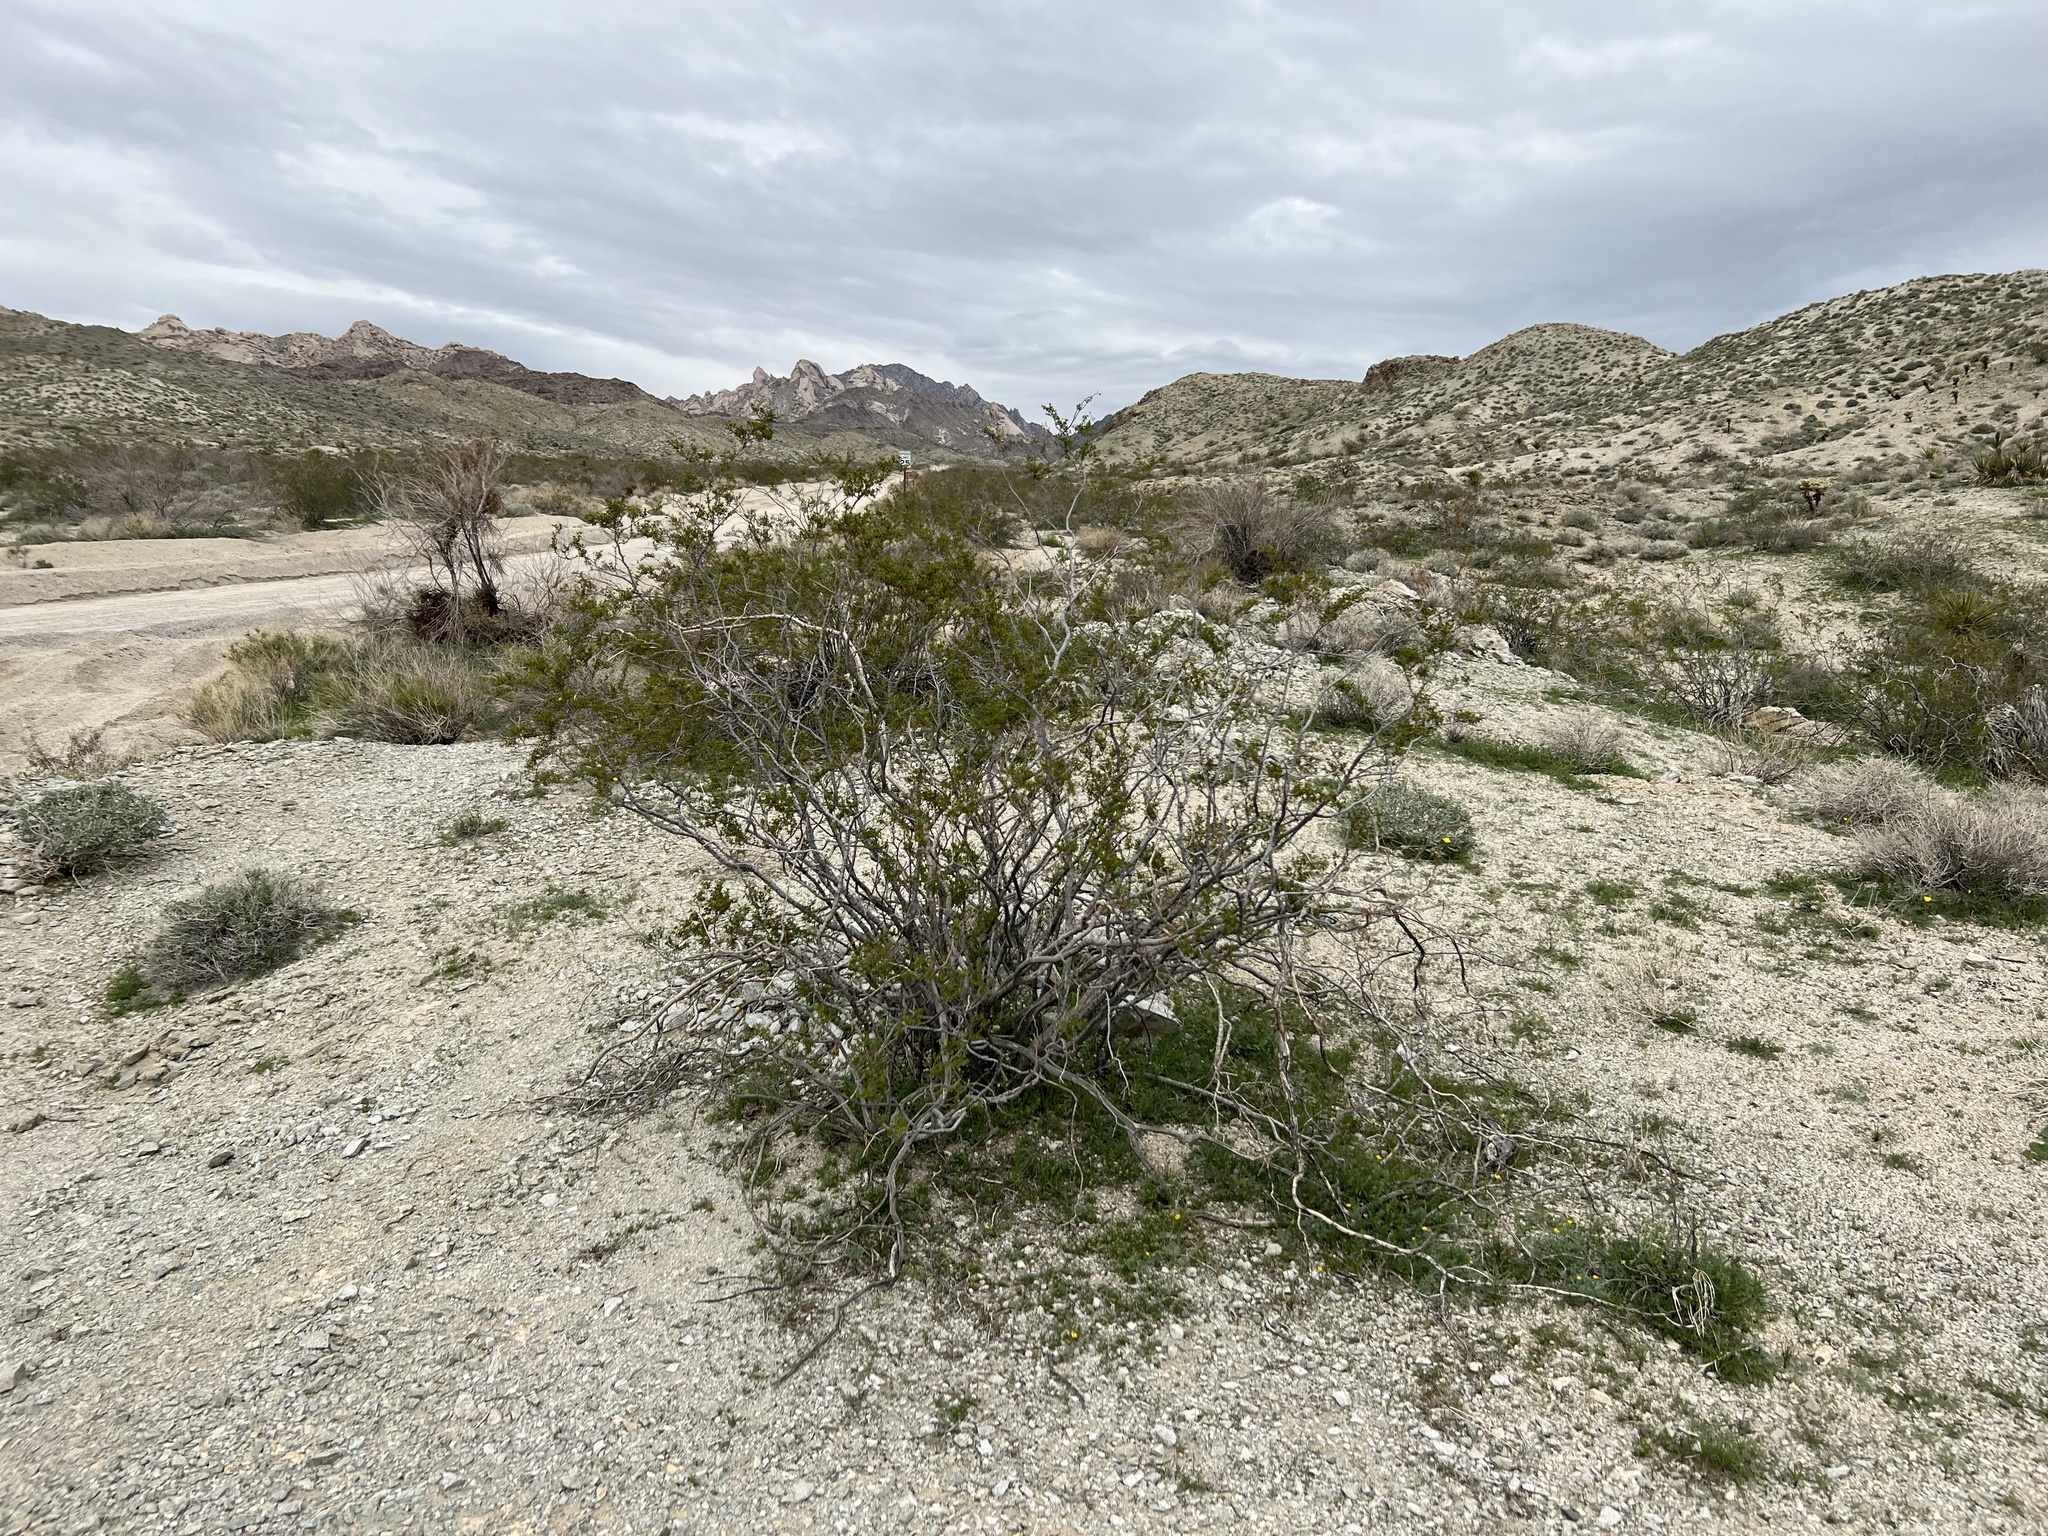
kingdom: Plantae
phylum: Tracheophyta
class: Magnoliopsida
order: Zygophyllales
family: Zygophyllaceae
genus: Larrea
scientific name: Larrea tridentata
